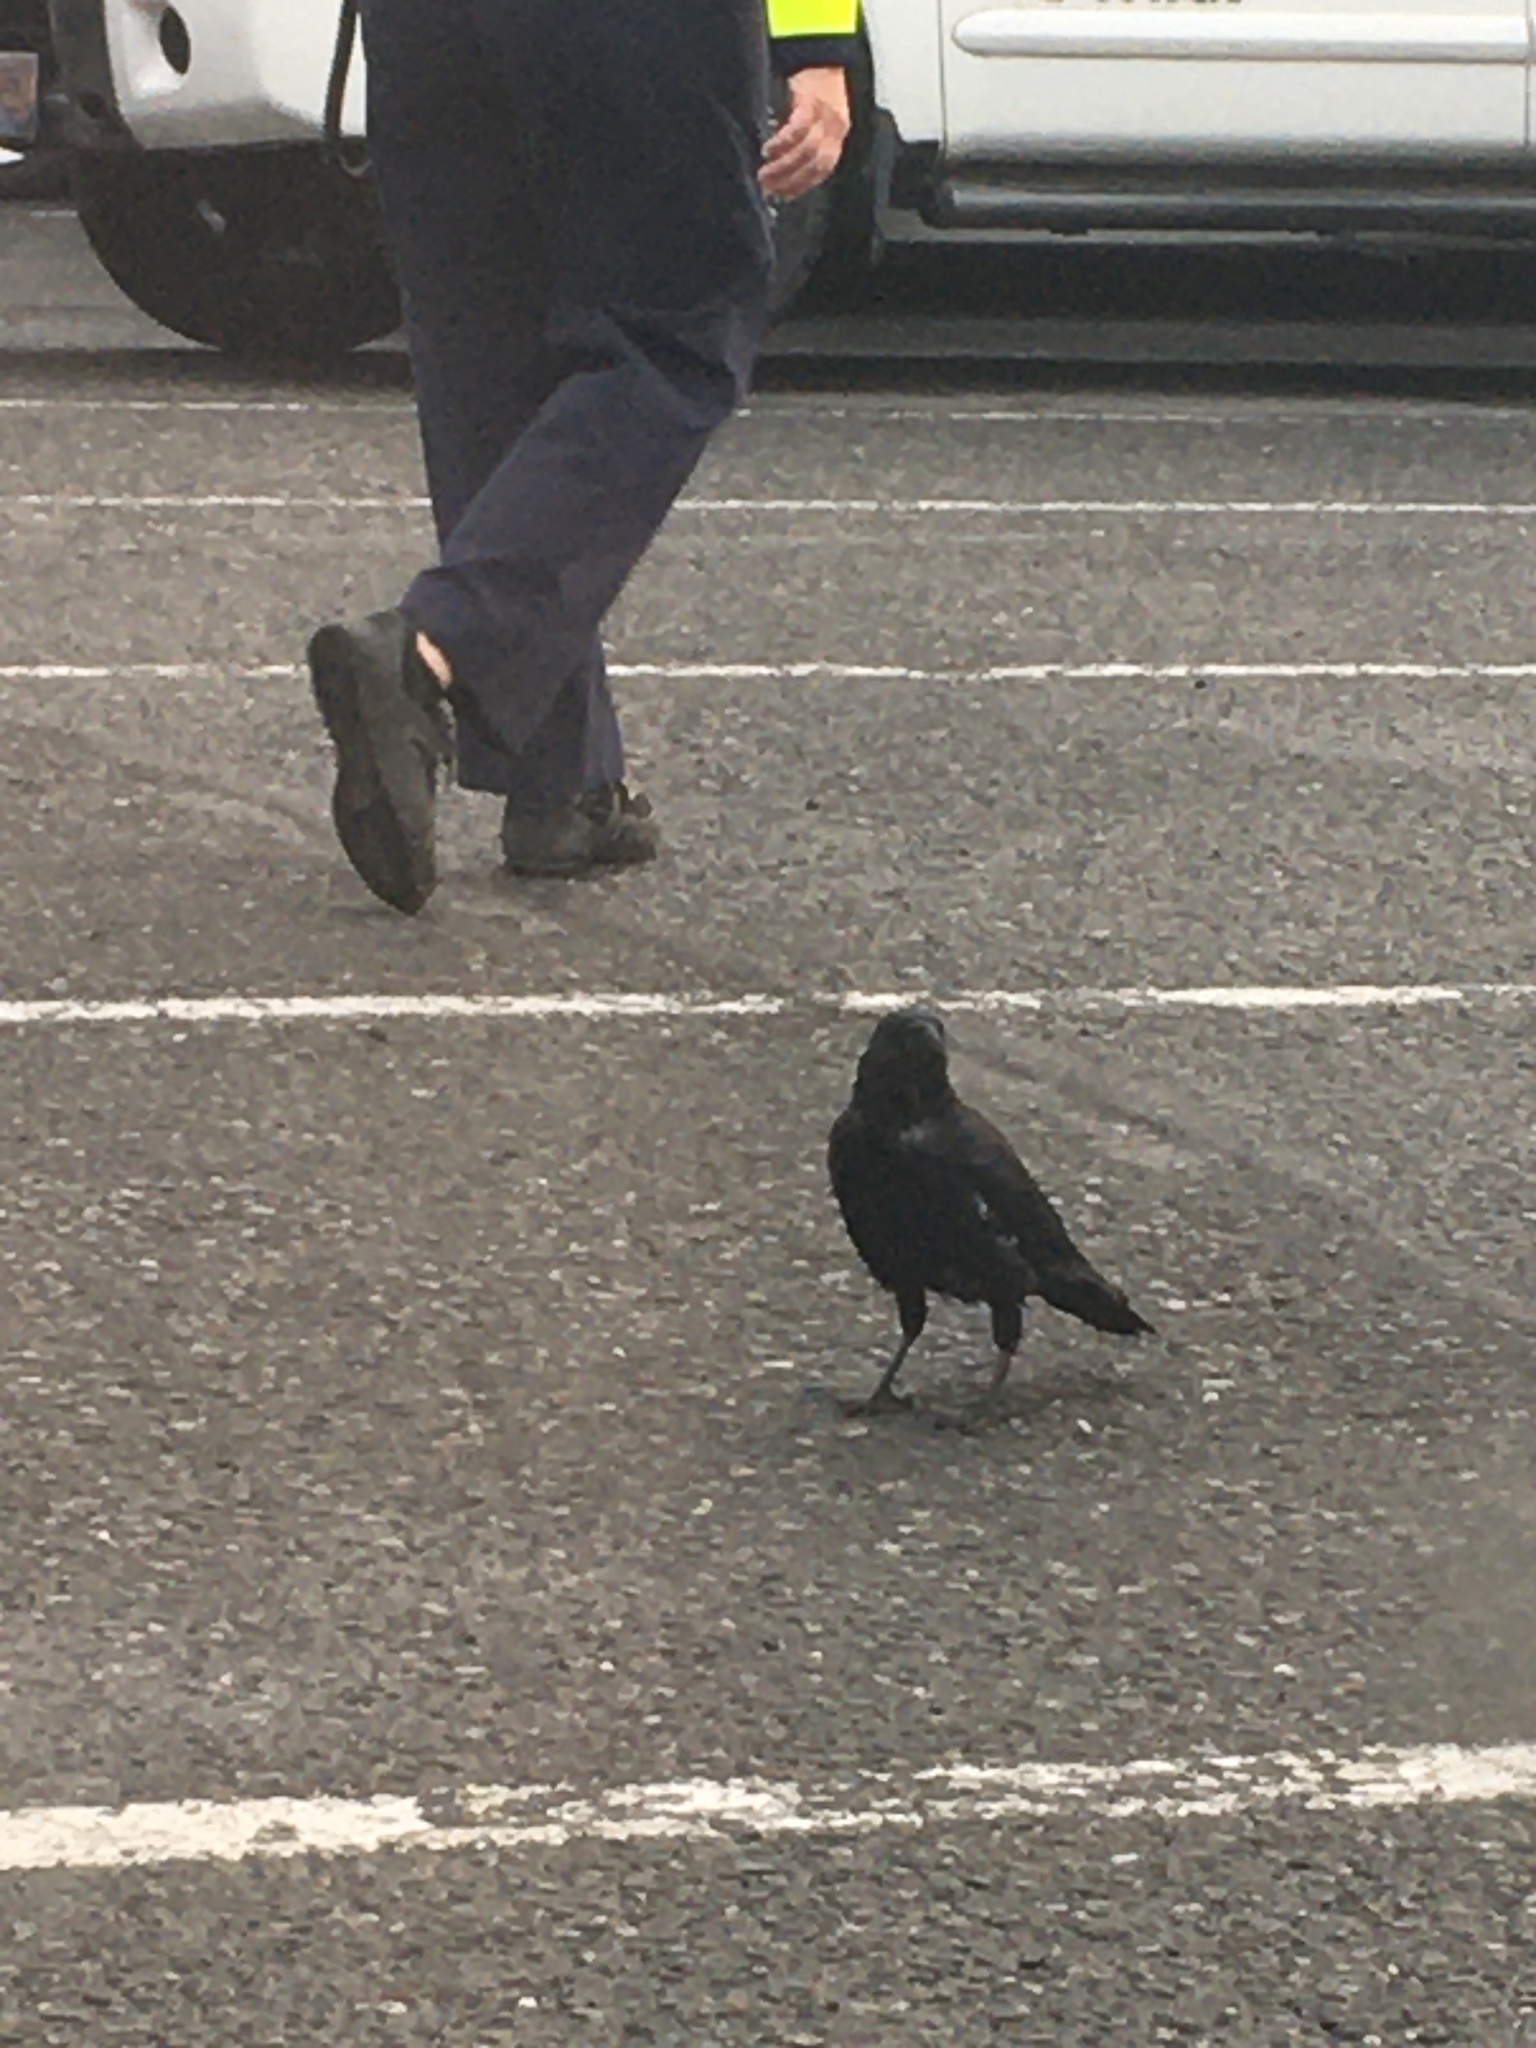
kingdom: Animalia
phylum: Chordata
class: Aves
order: Passeriformes
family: Corvidae
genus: Corvus
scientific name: Corvus brachyrhynchos
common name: American crow
